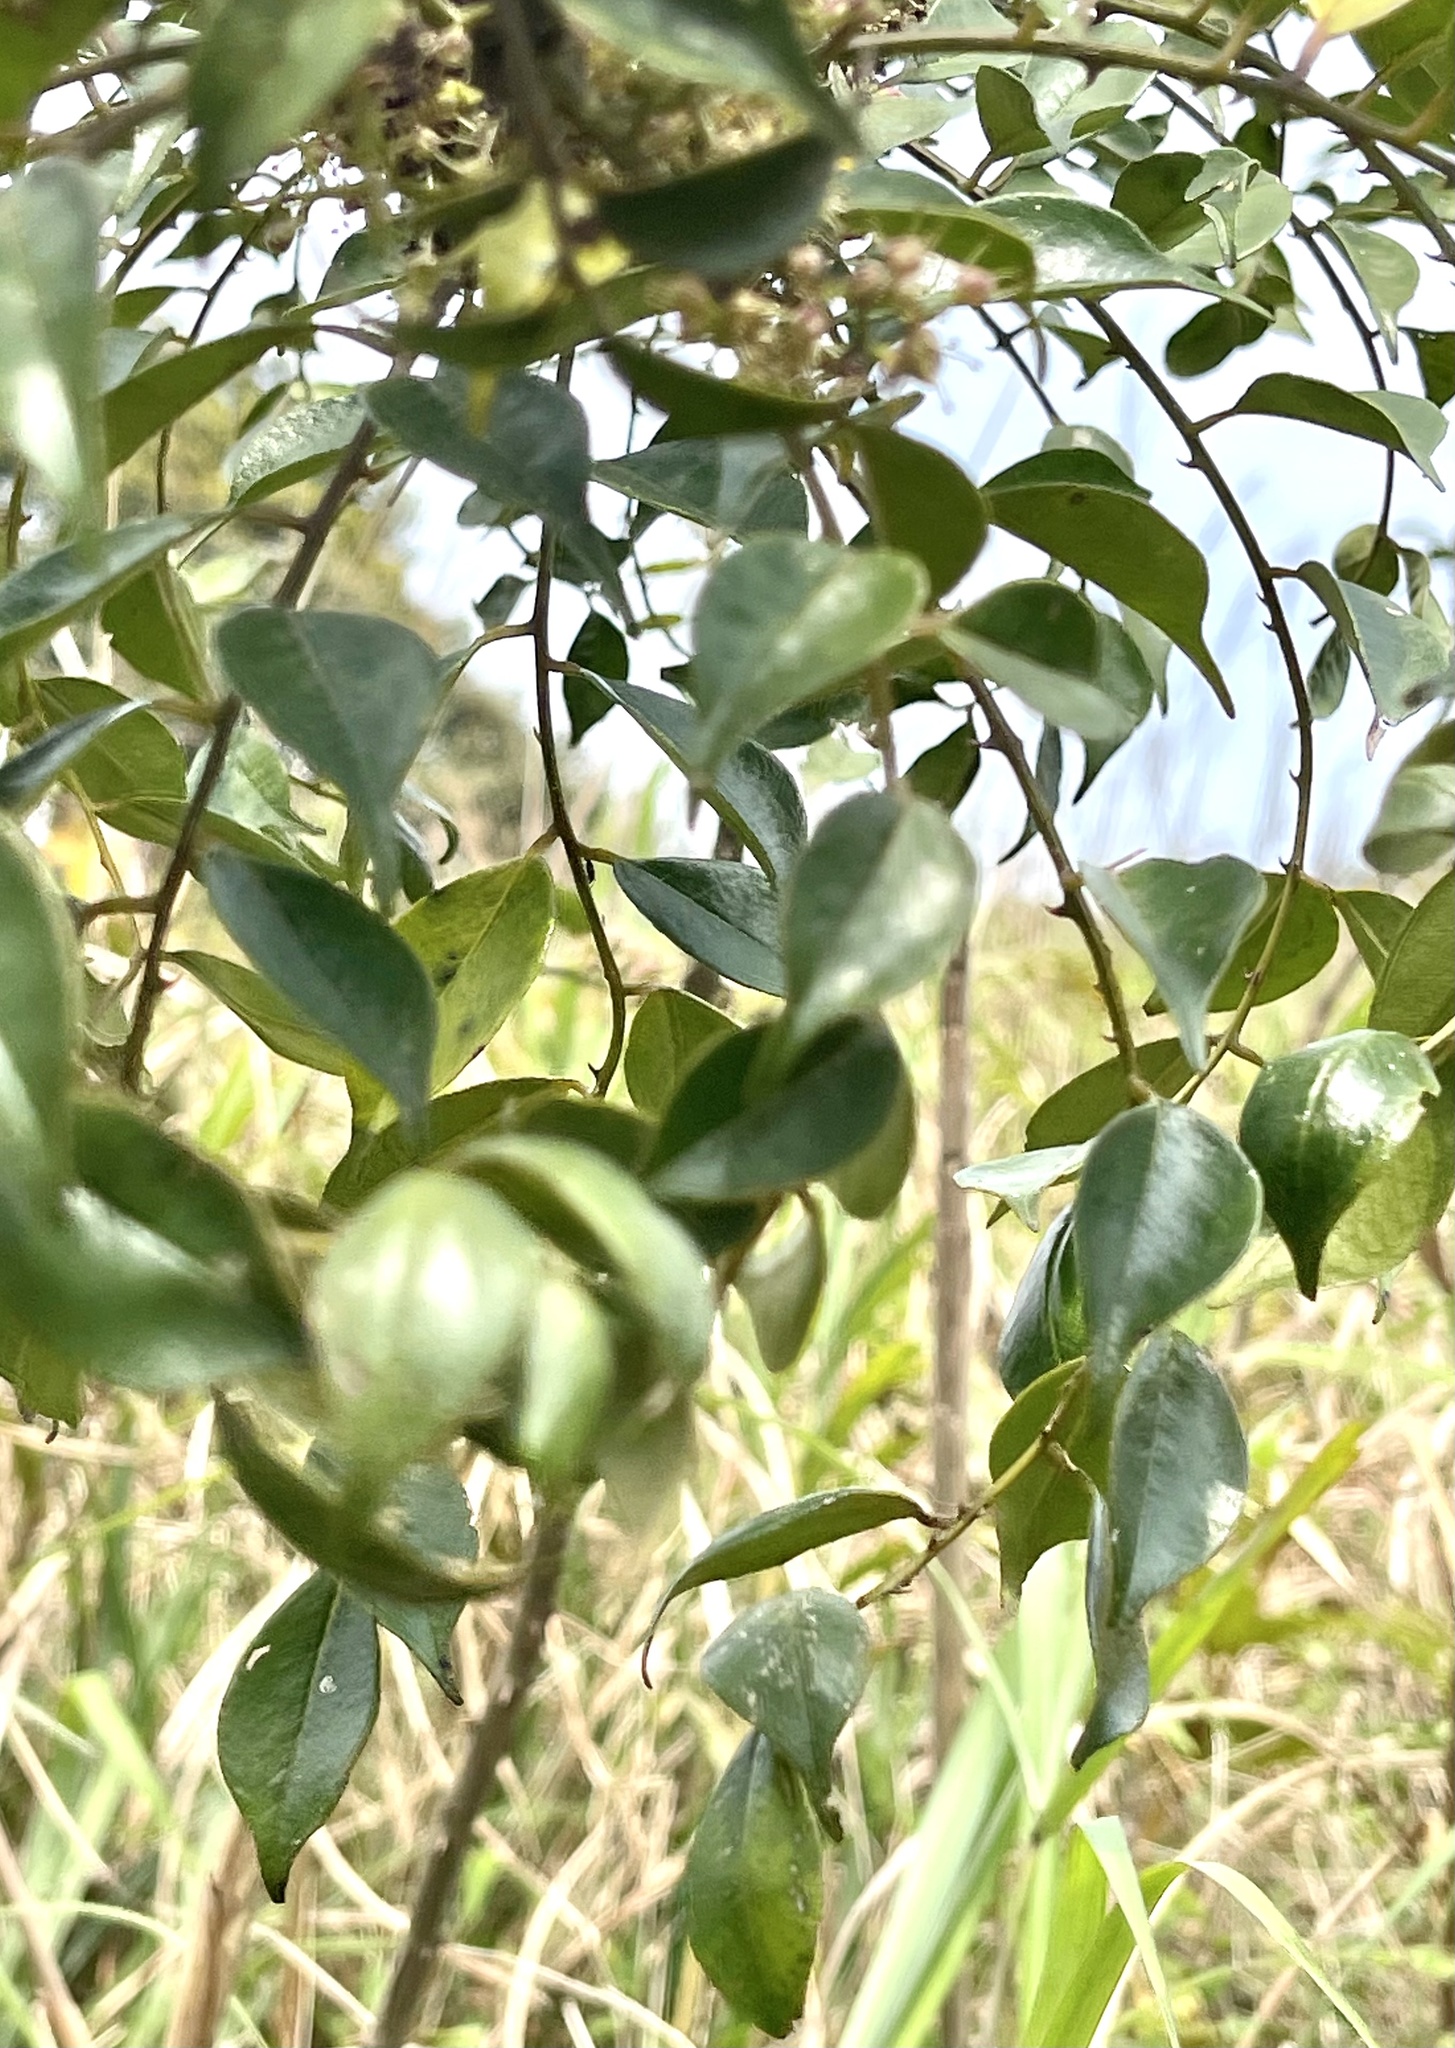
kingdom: Plantae
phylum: Tracheophyta
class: Magnoliopsida
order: Sapindales
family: Rutaceae
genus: Zanthoxylum
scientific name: Zanthoxylum scandens
